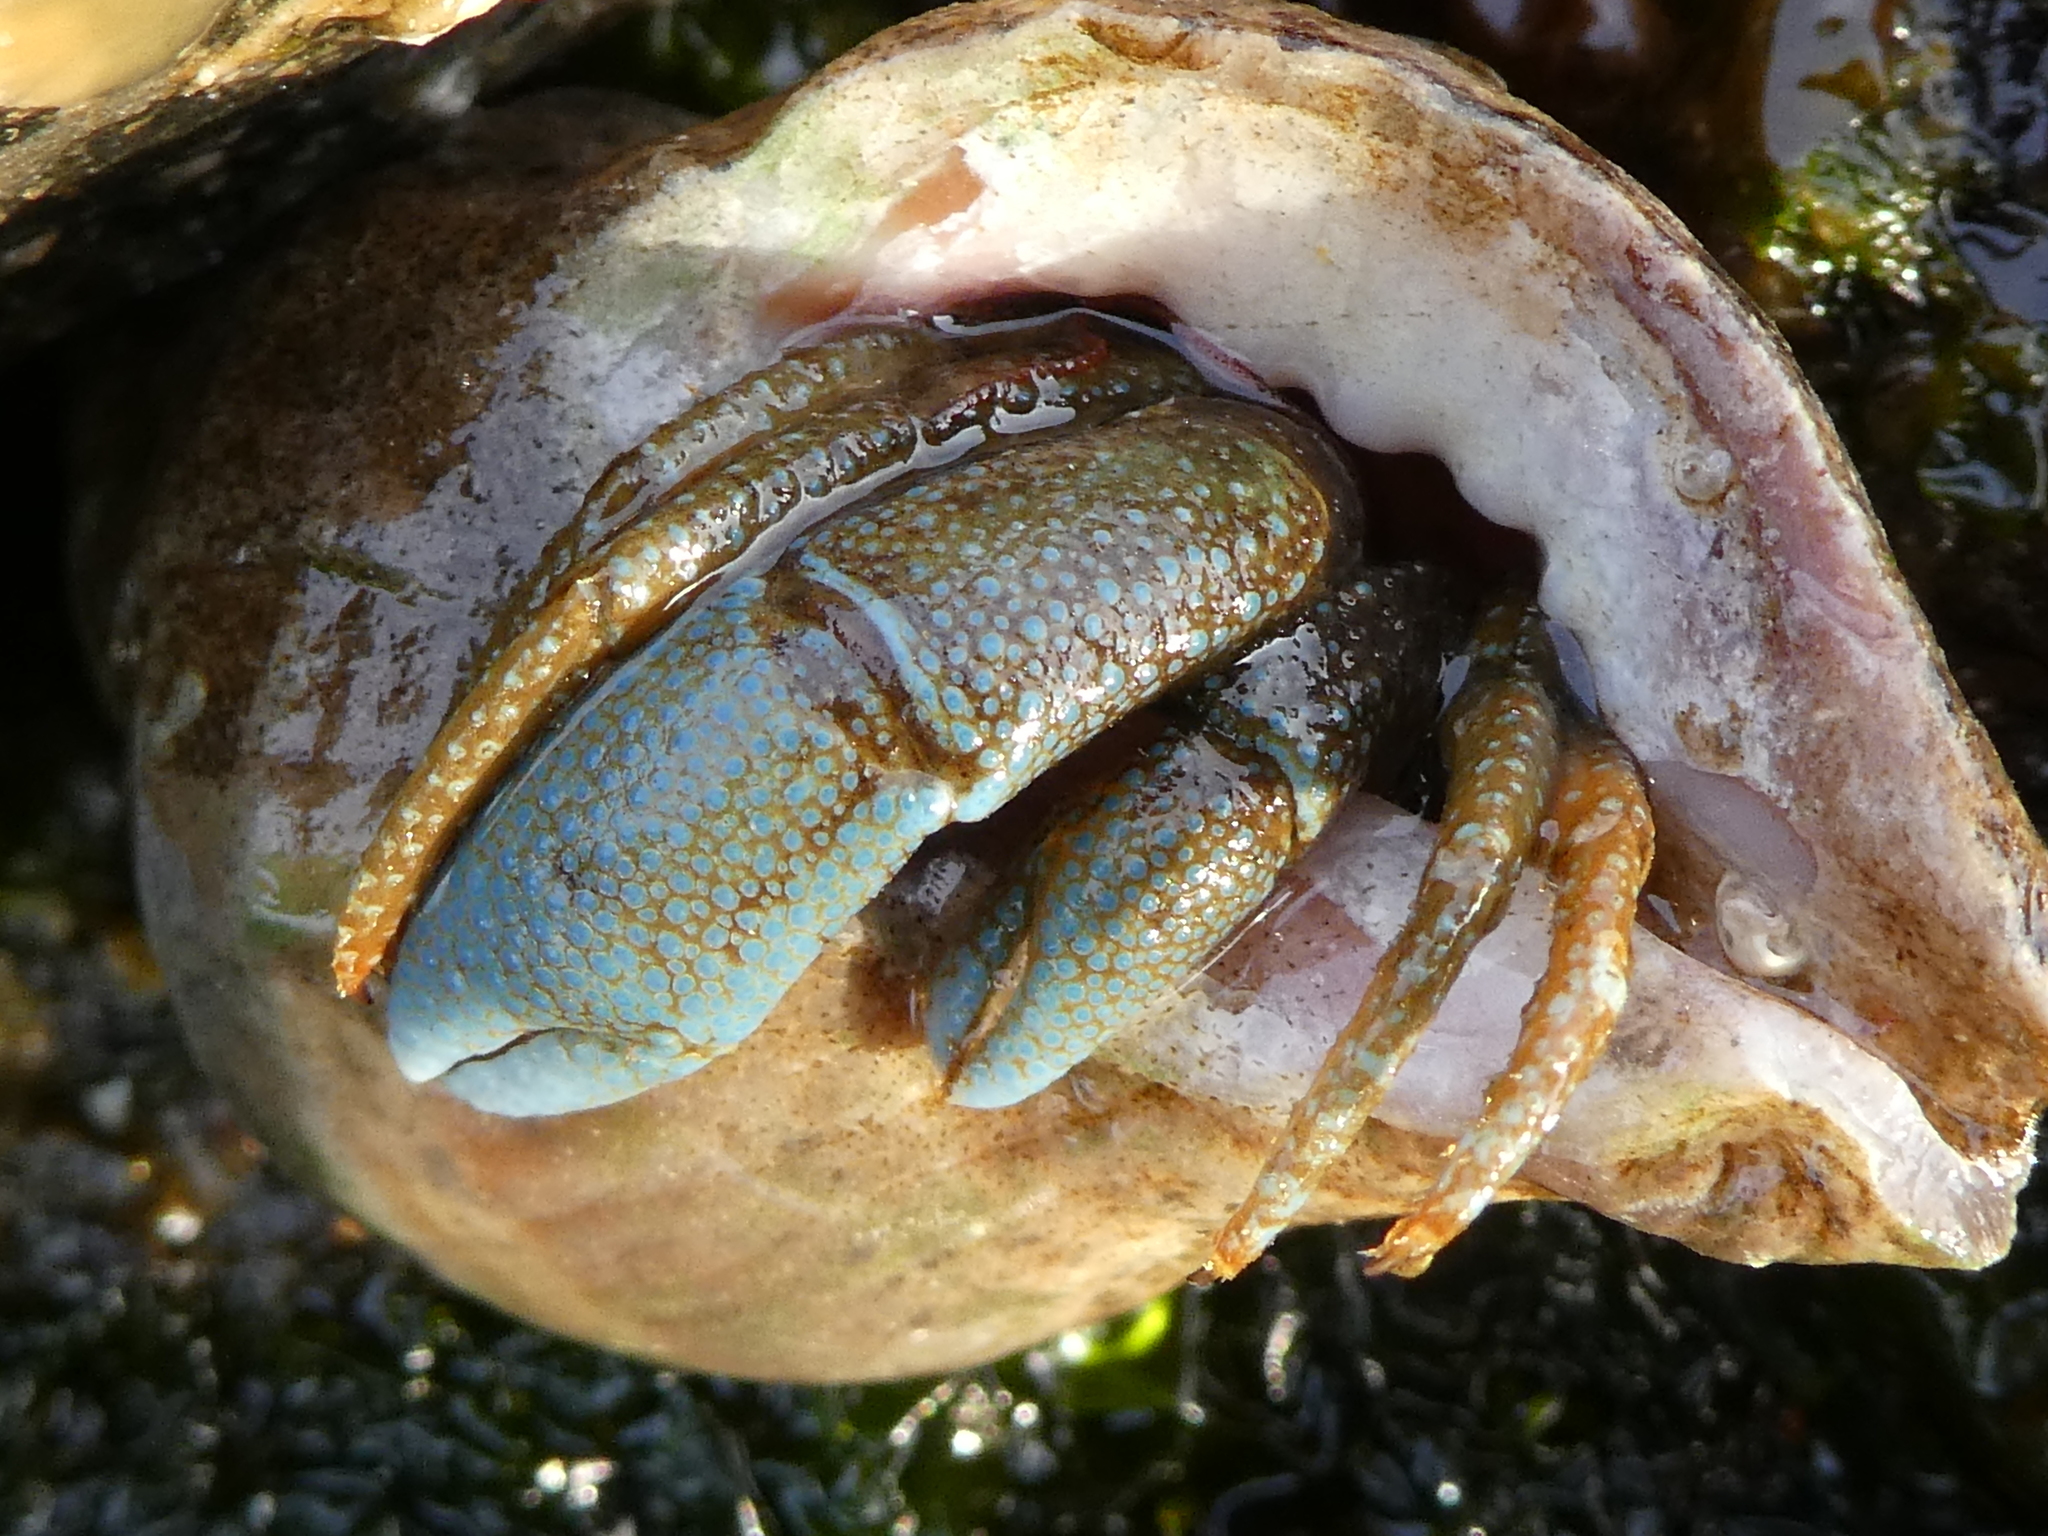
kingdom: Animalia
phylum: Arthropoda
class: Malacostraca
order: Decapoda
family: Paguridae
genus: Pagurus
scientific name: Pagurus granosimanus
